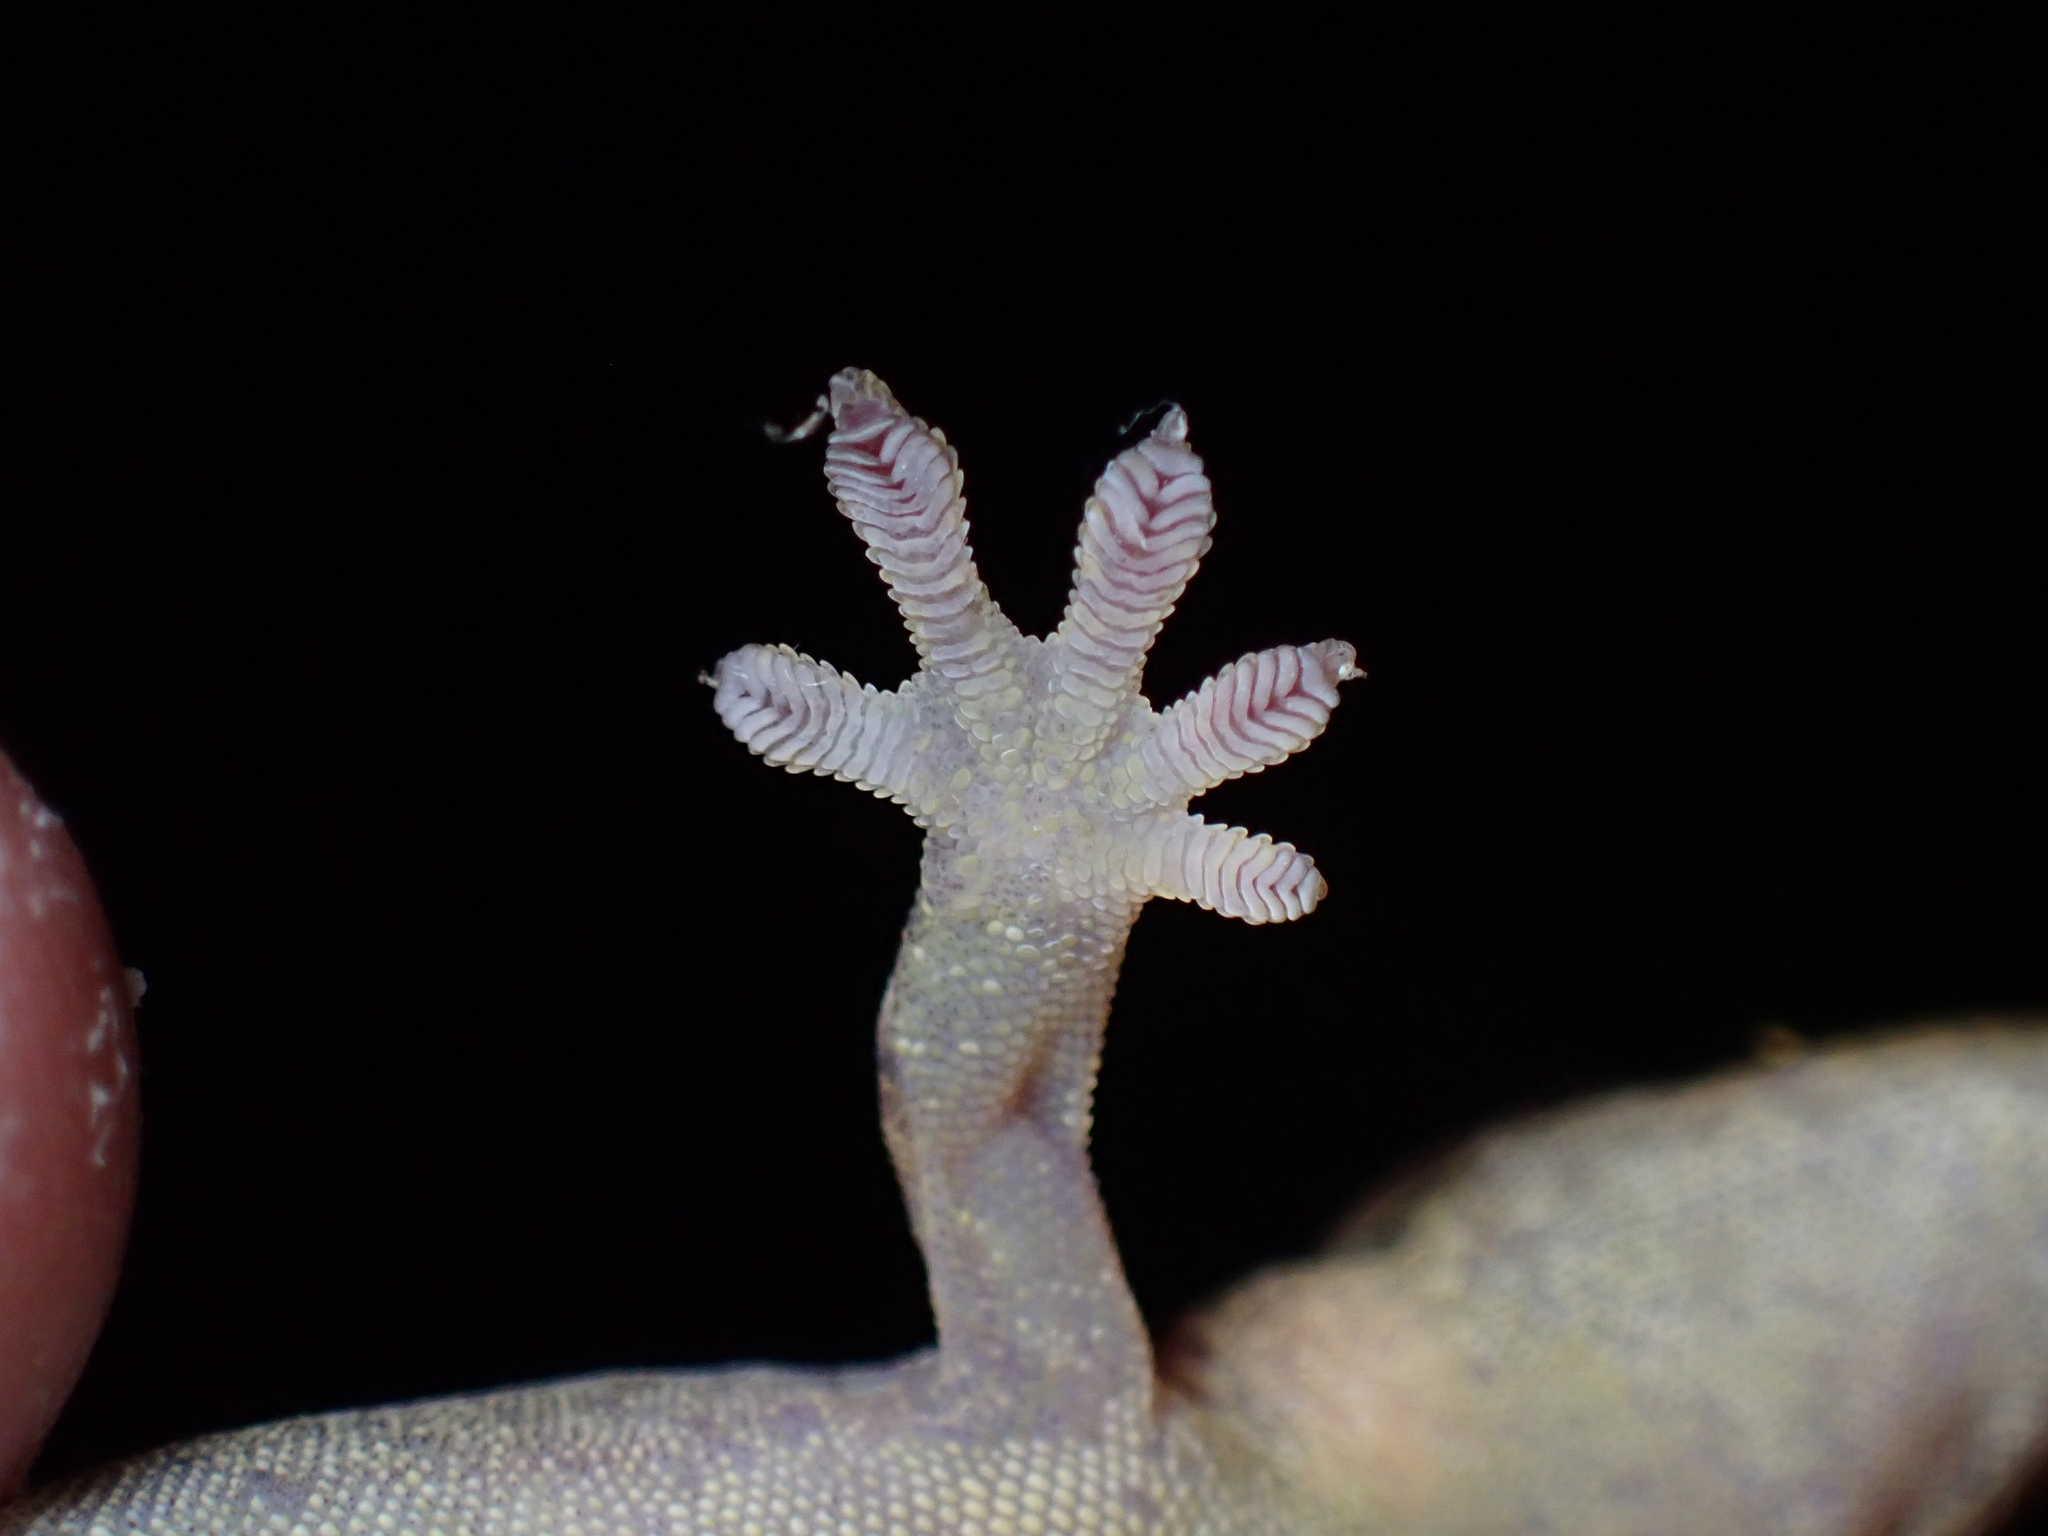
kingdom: Animalia
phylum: Chordata
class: Squamata
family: Gekkonidae
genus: Lepidodactylus
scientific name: Lepidodactylus vanuatuensis
